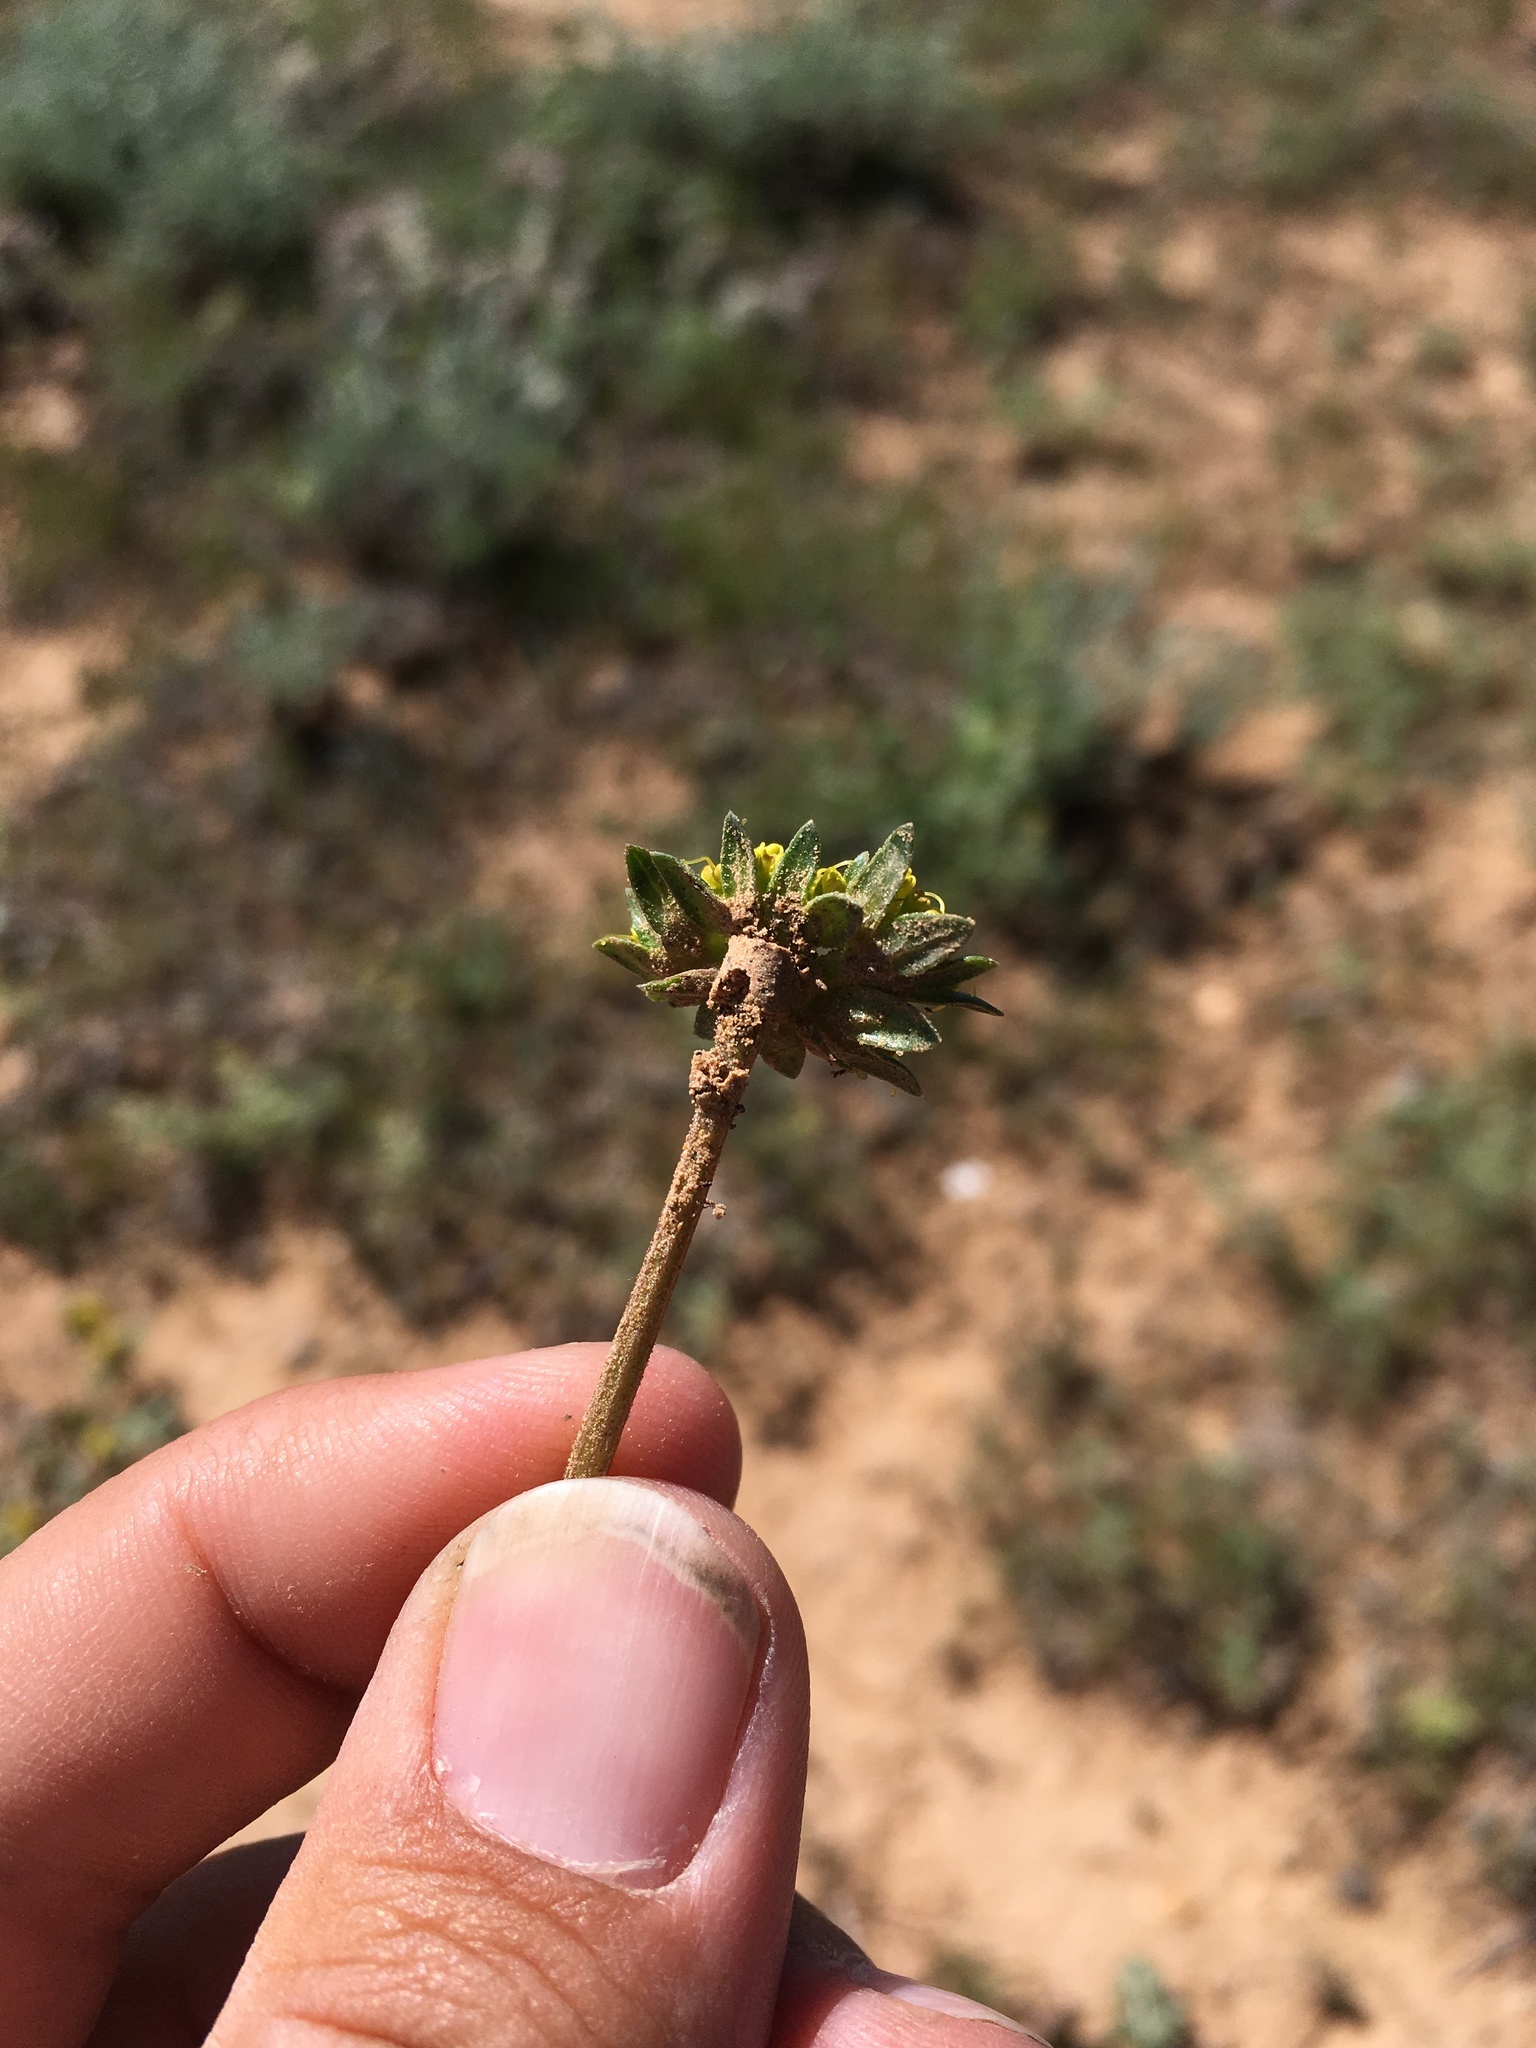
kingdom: Plantae
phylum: Tracheophyta
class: Magnoliopsida
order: Apiales
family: Apiaceae
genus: Cymopterus
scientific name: Cymopterus glomeratus
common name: Plains spring parsley
